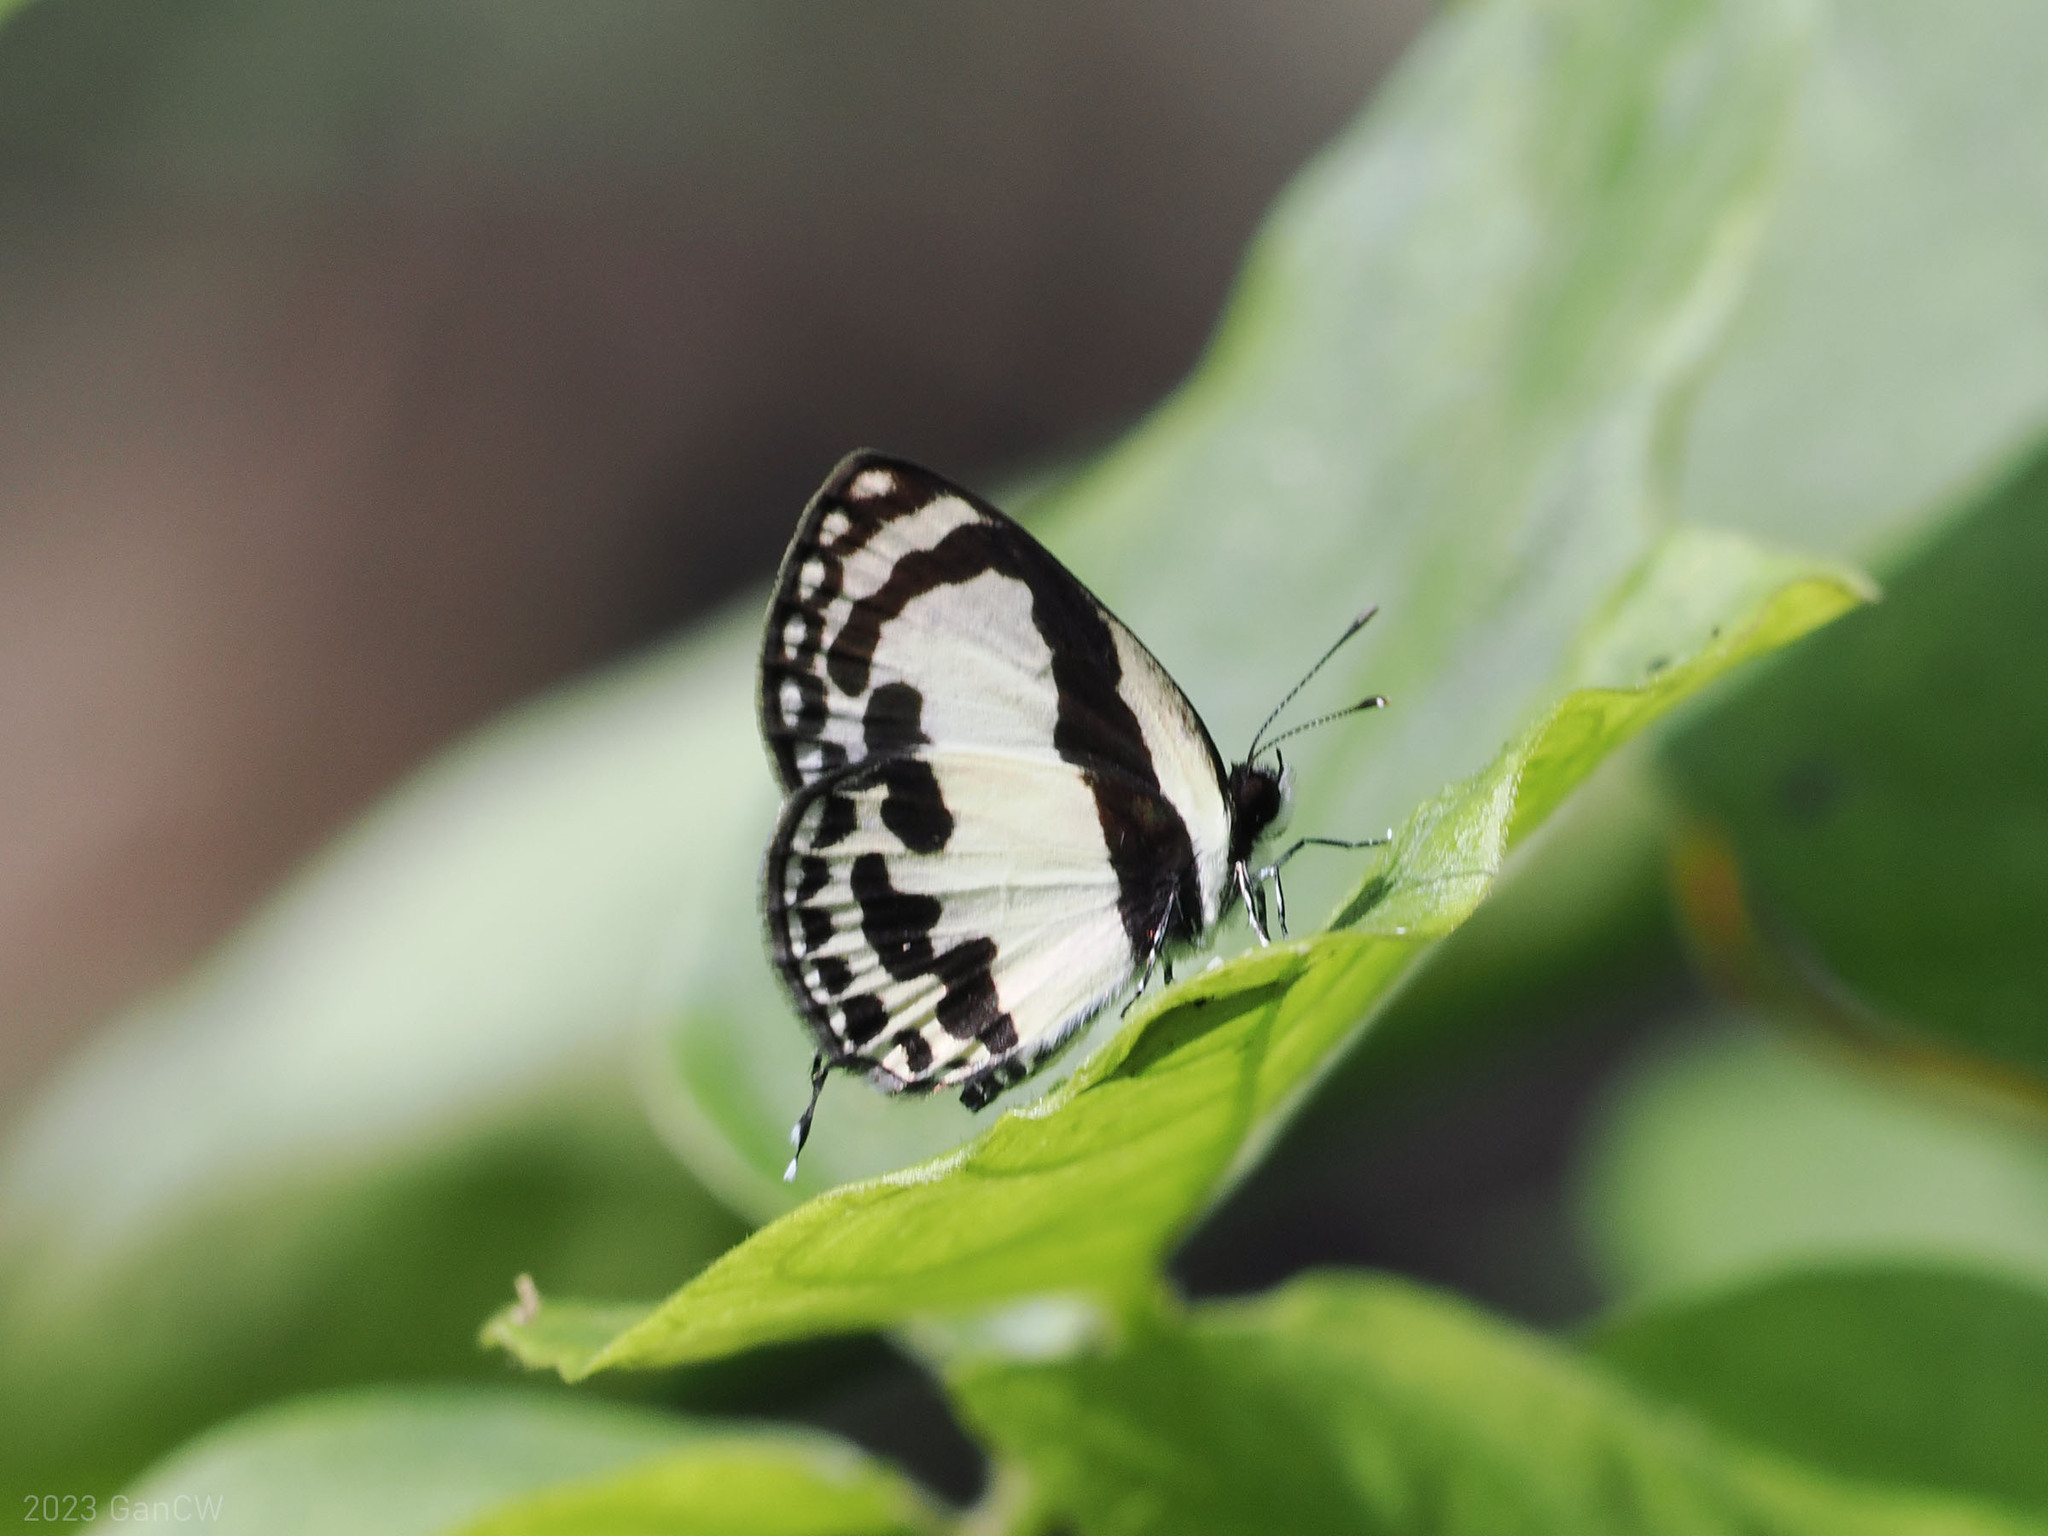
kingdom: Animalia
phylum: Arthropoda
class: Insecta
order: Lepidoptera
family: Lycaenidae
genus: Caleta
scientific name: Caleta roxus
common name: Straight pierrot
